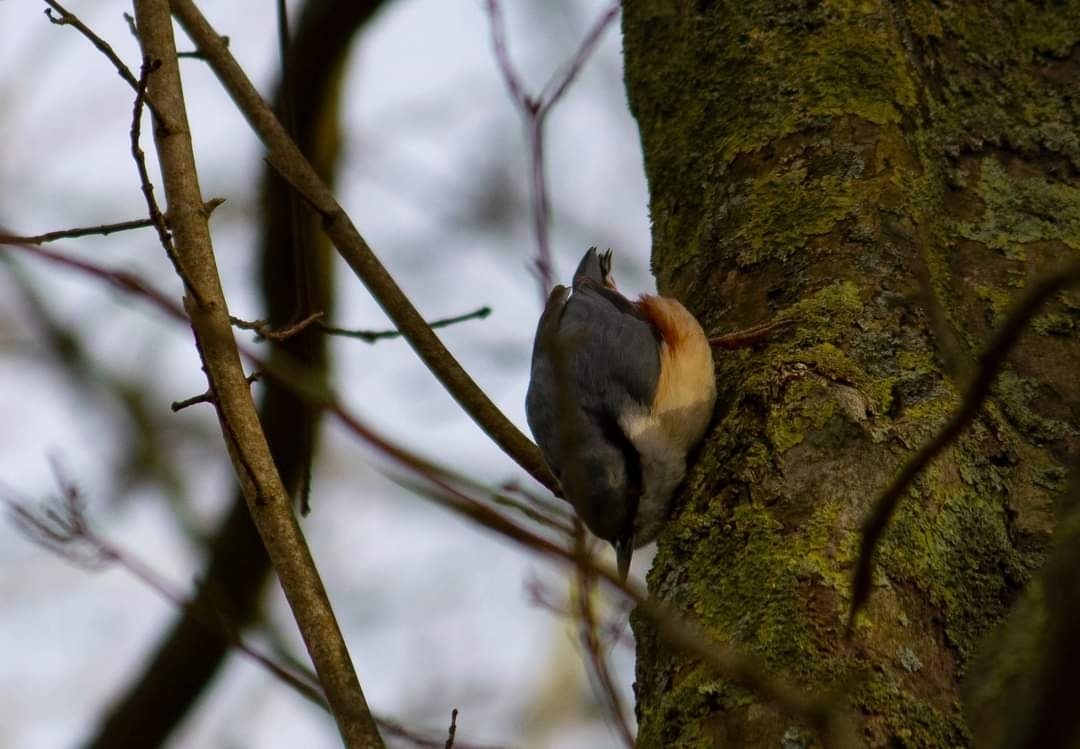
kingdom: Animalia
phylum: Chordata
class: Aves
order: Passeriformes
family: Sittidae
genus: Sitta
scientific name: Sitta europaea
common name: Eurasian nuthatch
